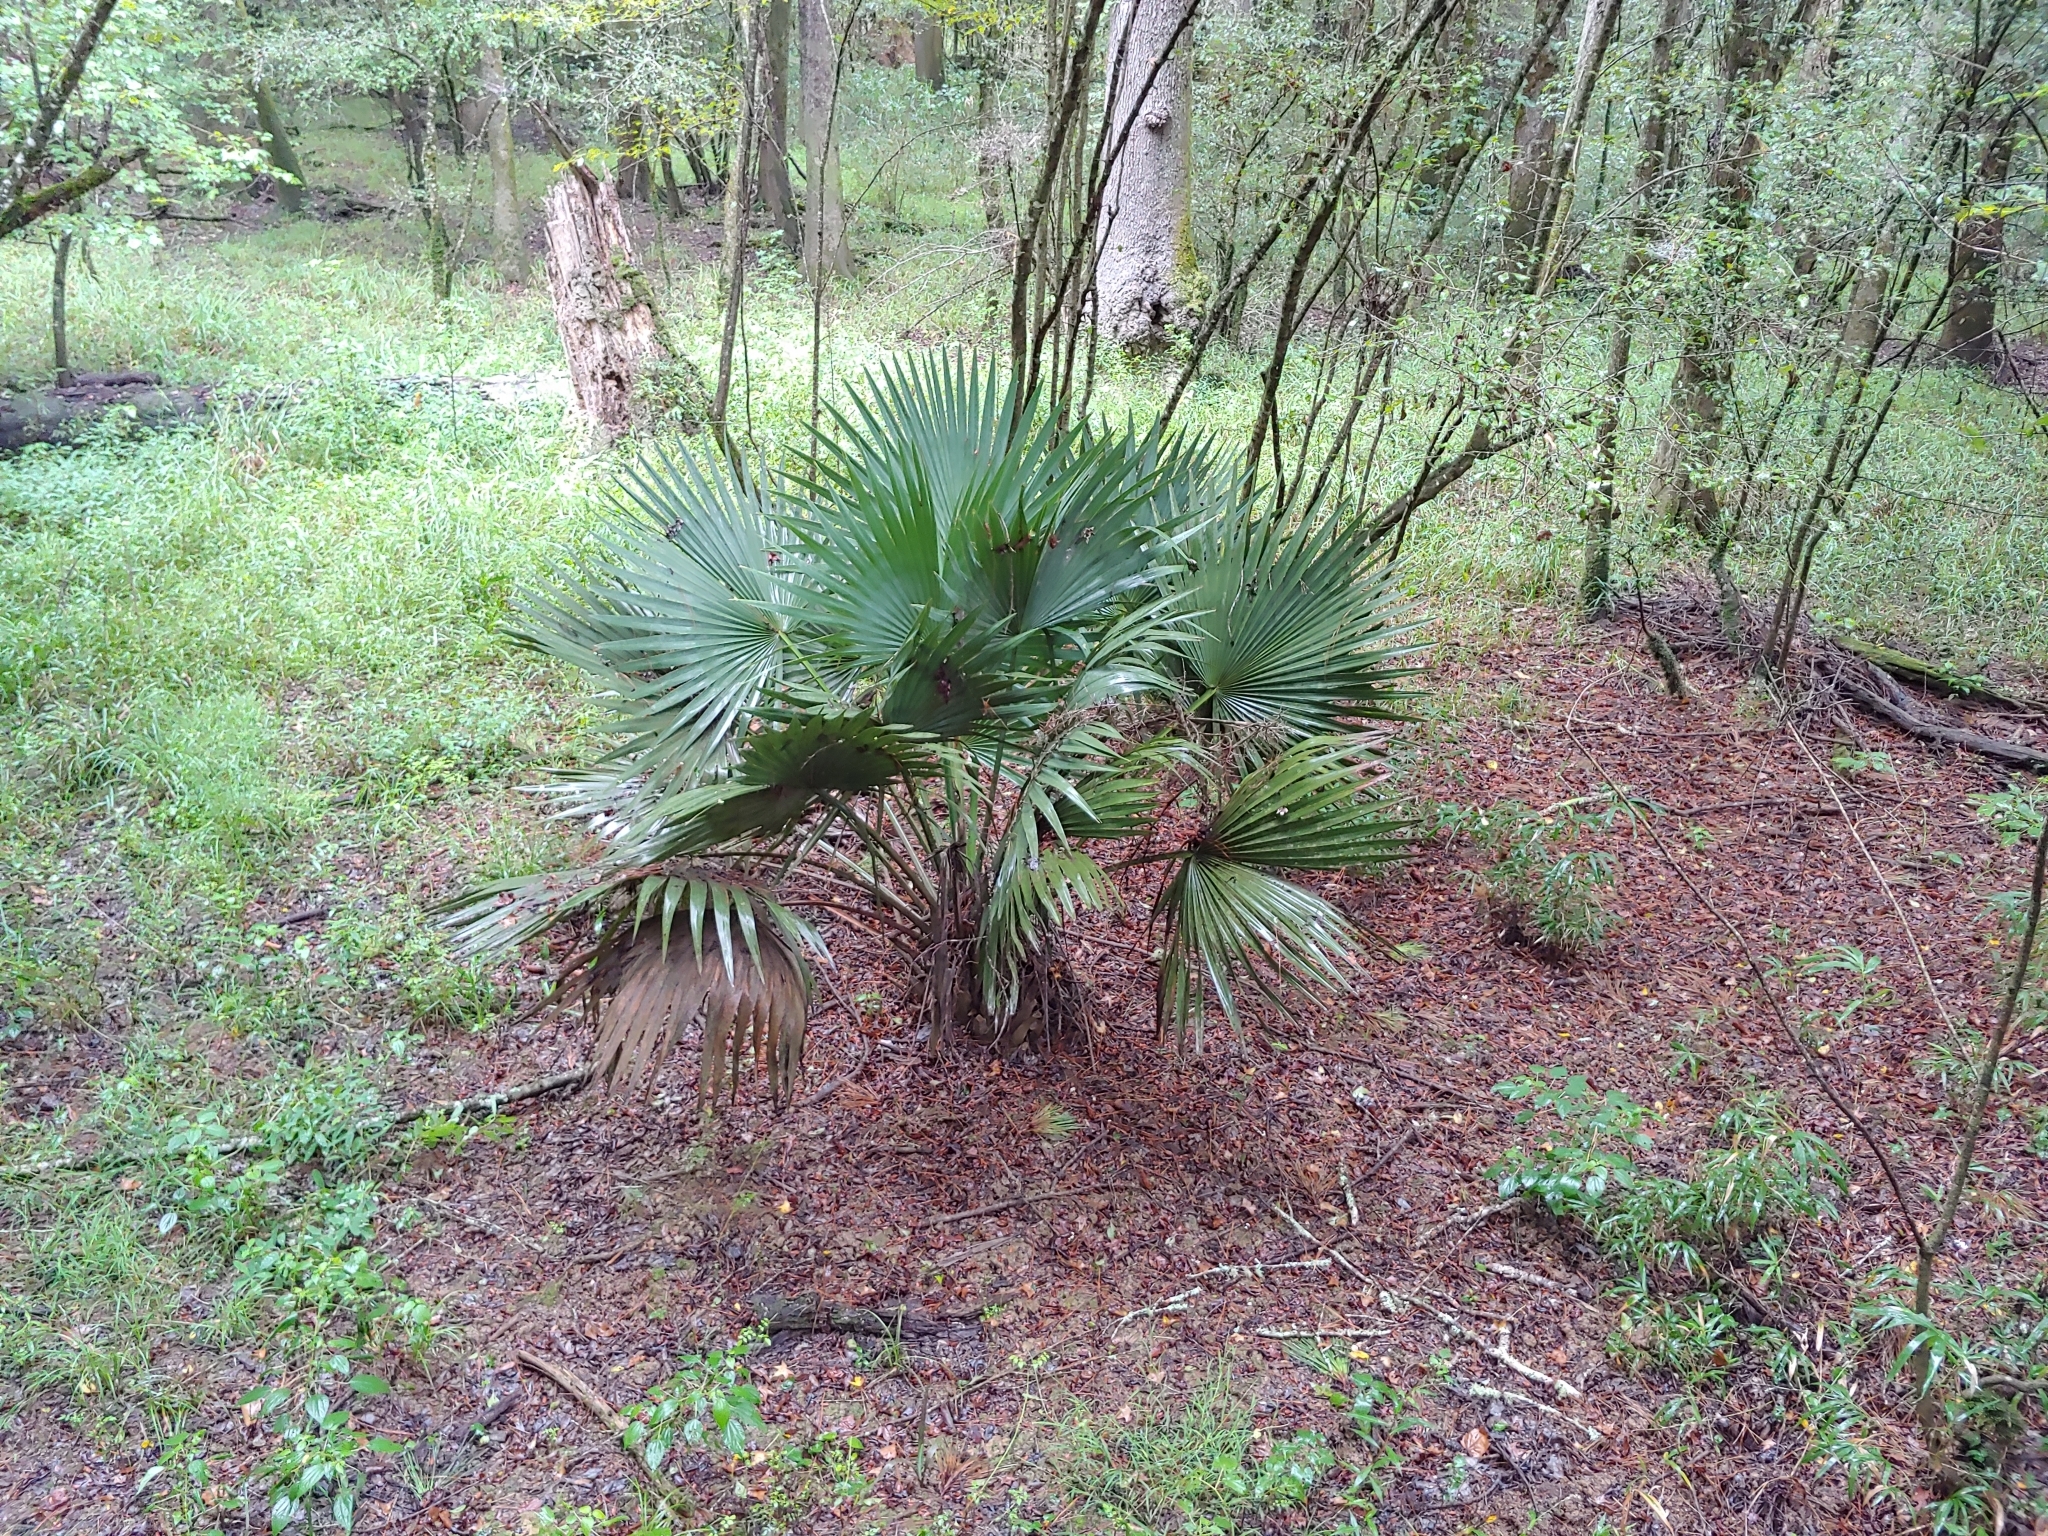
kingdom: Plantae
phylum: Tracheophyta
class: Liliopsida
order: Arecales
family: Arecaceae
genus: Sabal
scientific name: Sabal minor
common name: Dwarf palmetto
